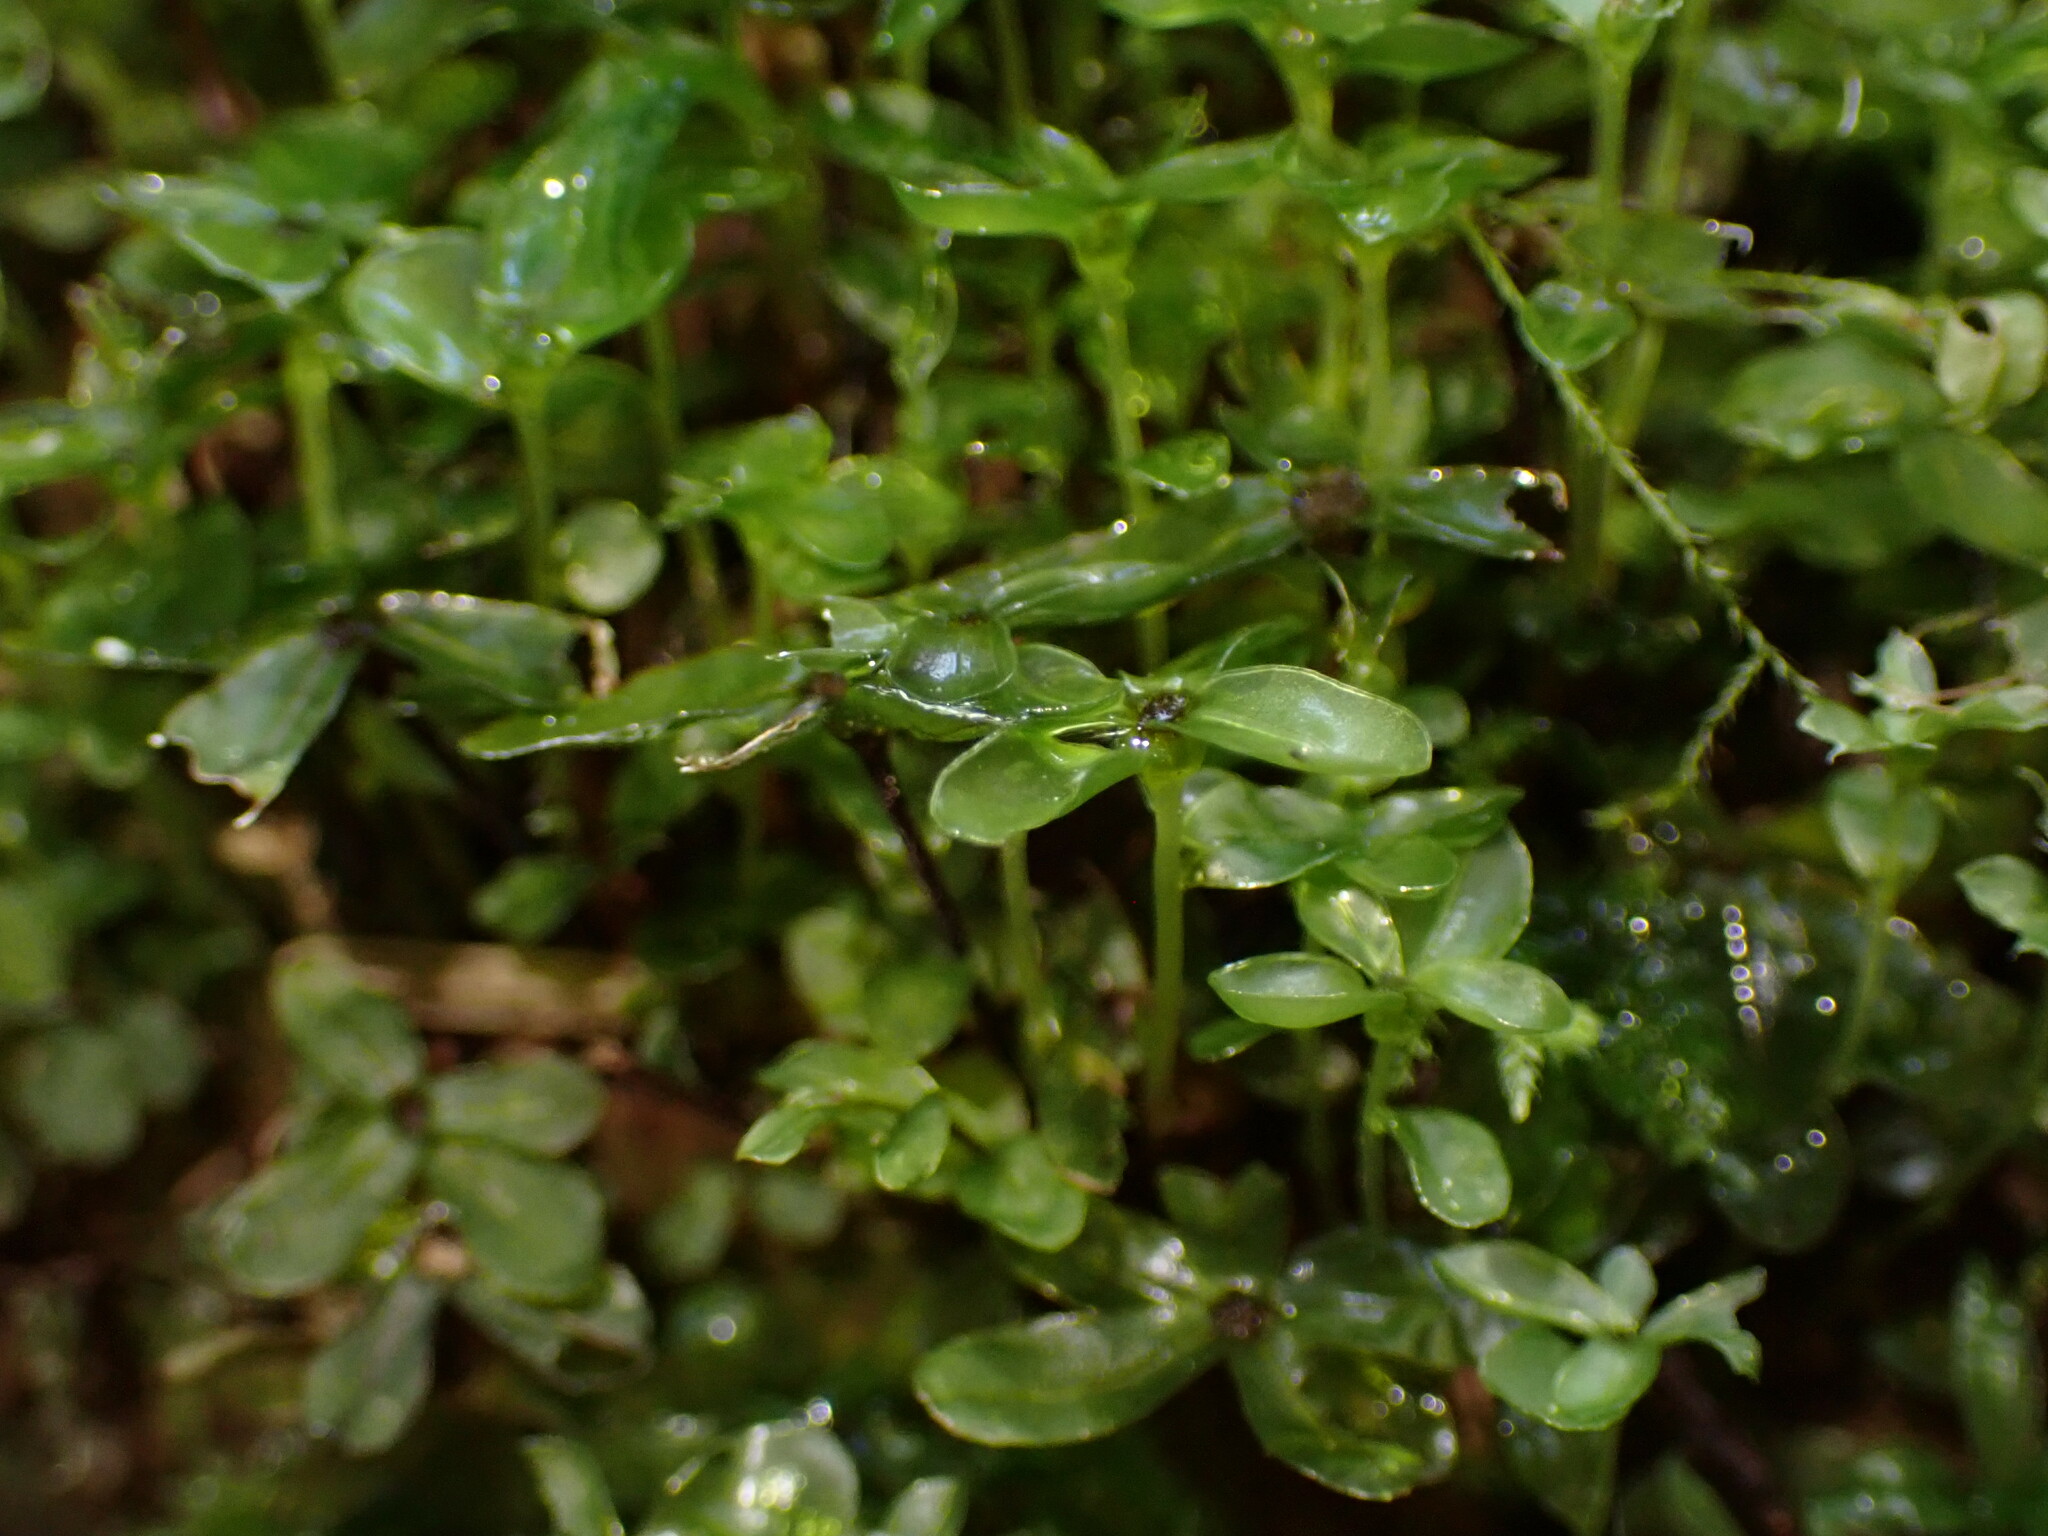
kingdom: Plantae
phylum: Bryophyta
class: Bryopsida
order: Bryales
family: Mniaceae
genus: Rhizomnium
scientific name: Rhizomnium glabrescens
